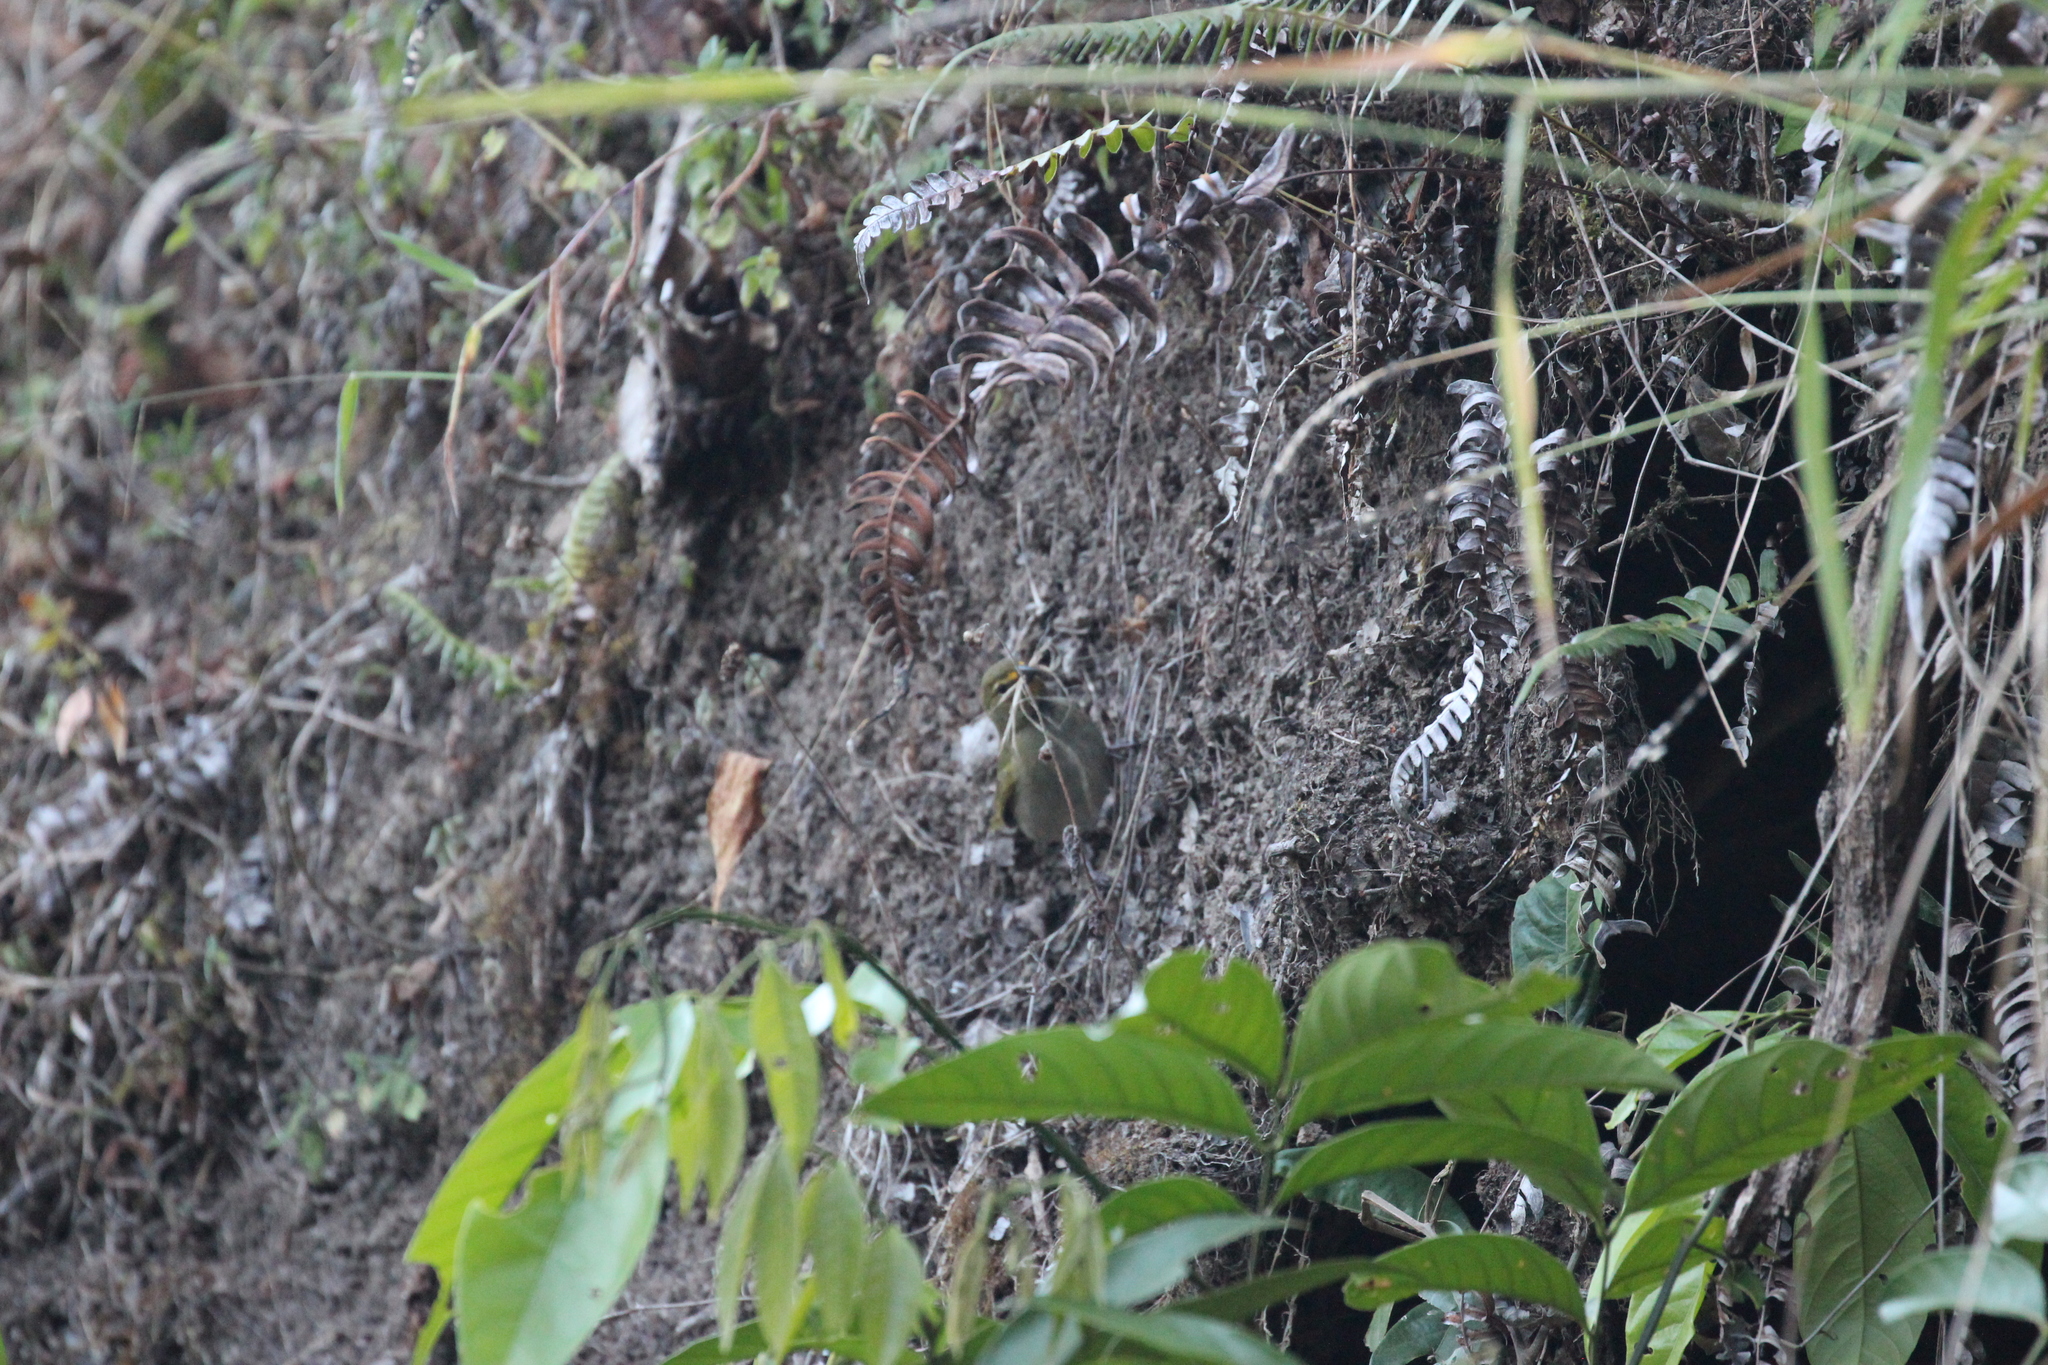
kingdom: Animalia
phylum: Chordata
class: Aves
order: Passeriformes
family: Thraupidae
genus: Tiaris
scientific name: Tiaris olivaceus
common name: Yellow-faced grassquit
